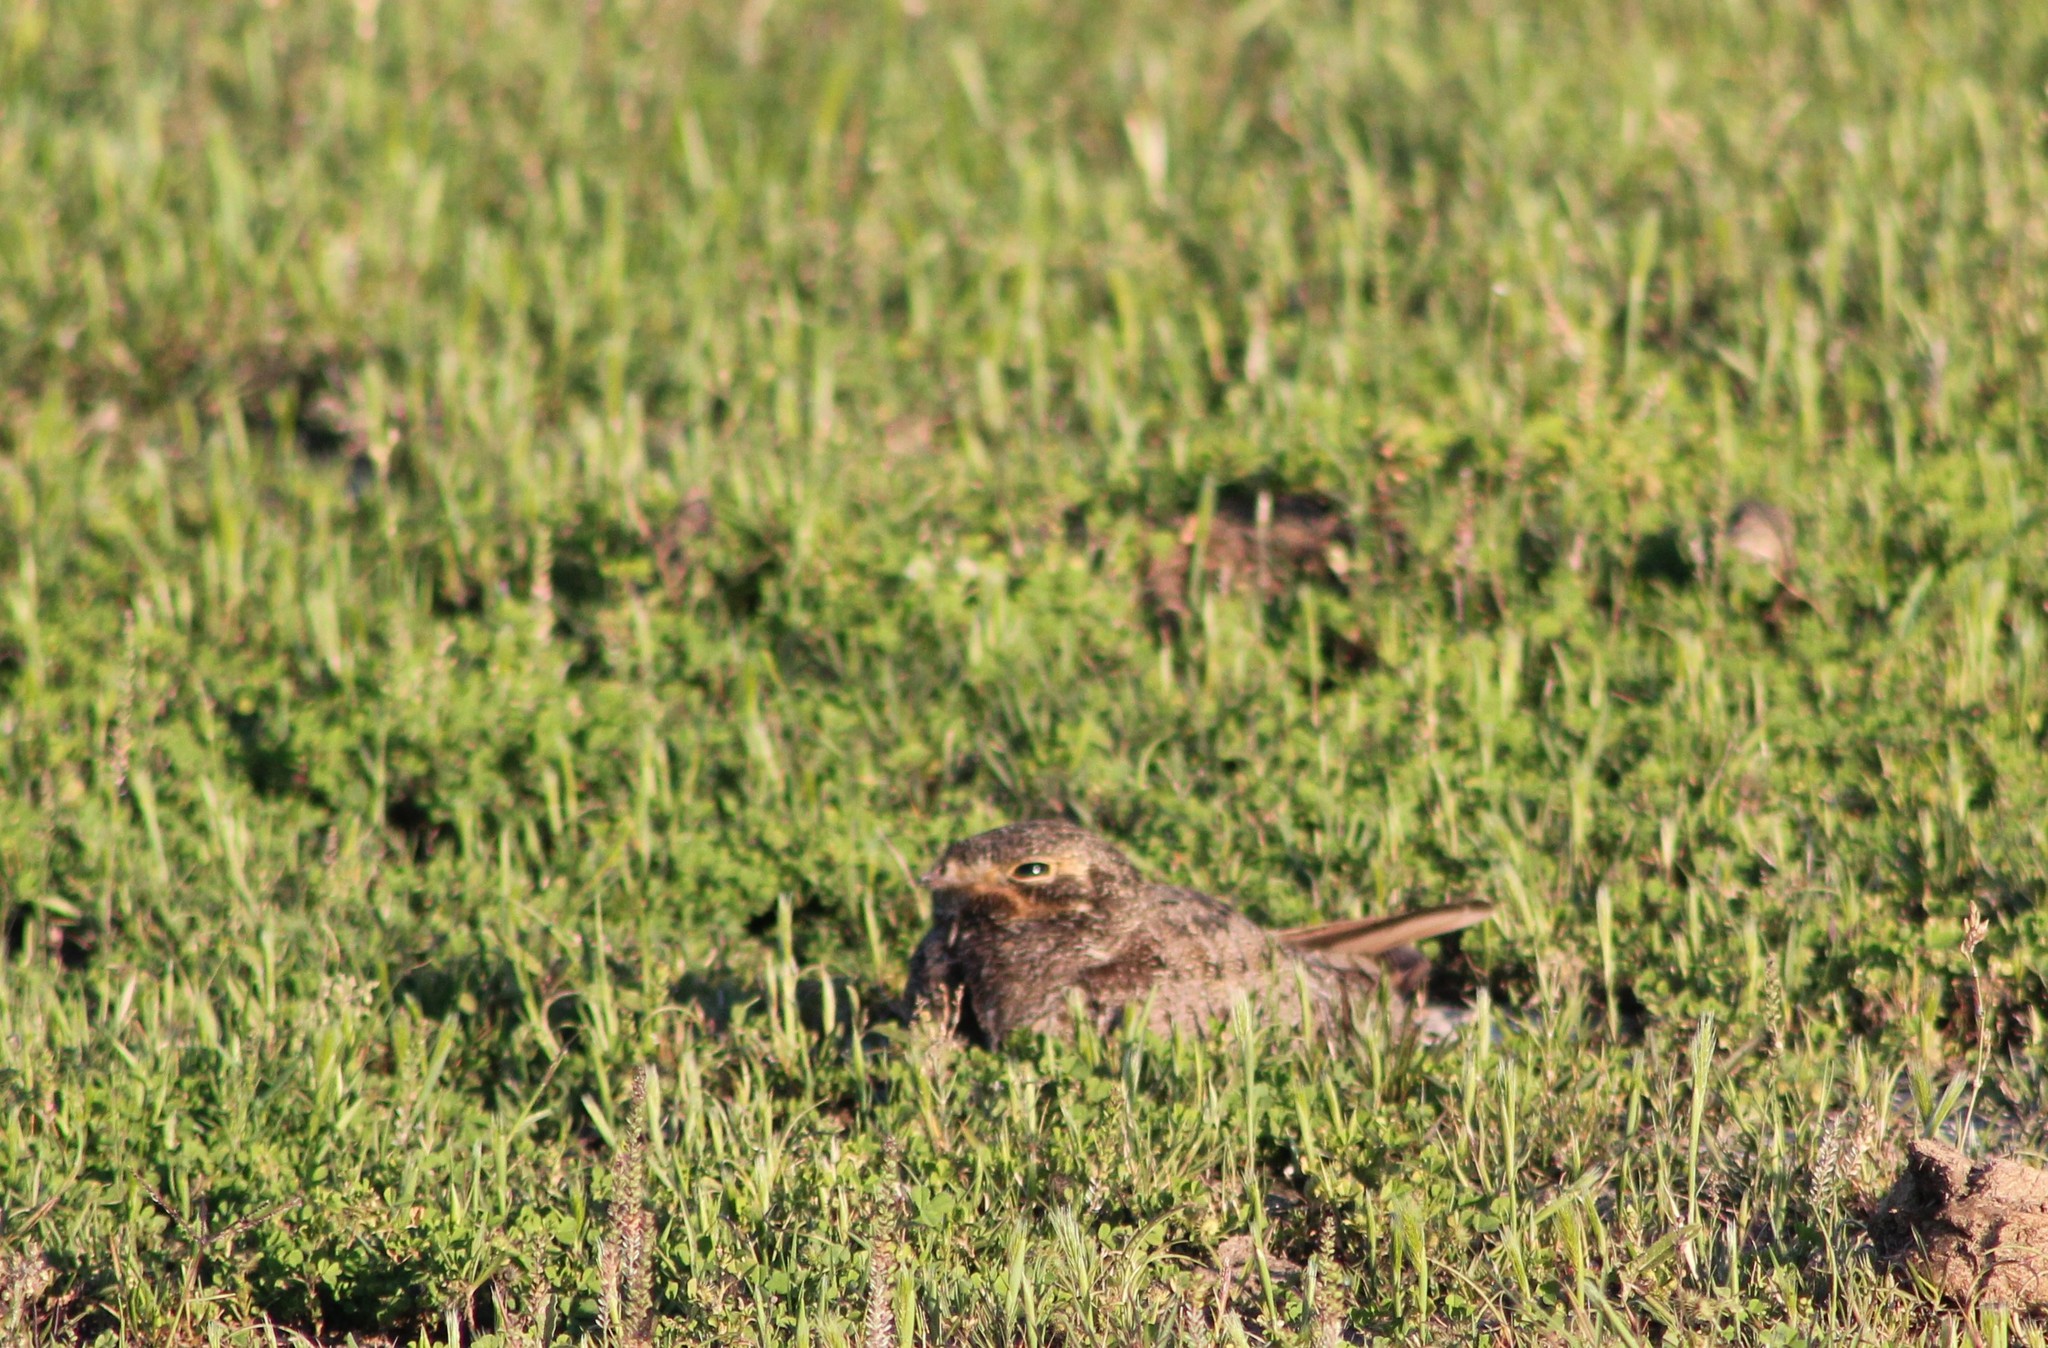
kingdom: Animalia
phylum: Chordata
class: Aves
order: Caprimulgiformes
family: Caprimulgidae
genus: Chordeiles
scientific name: Chordeiles nacunda
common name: Nacunda nighthawk
